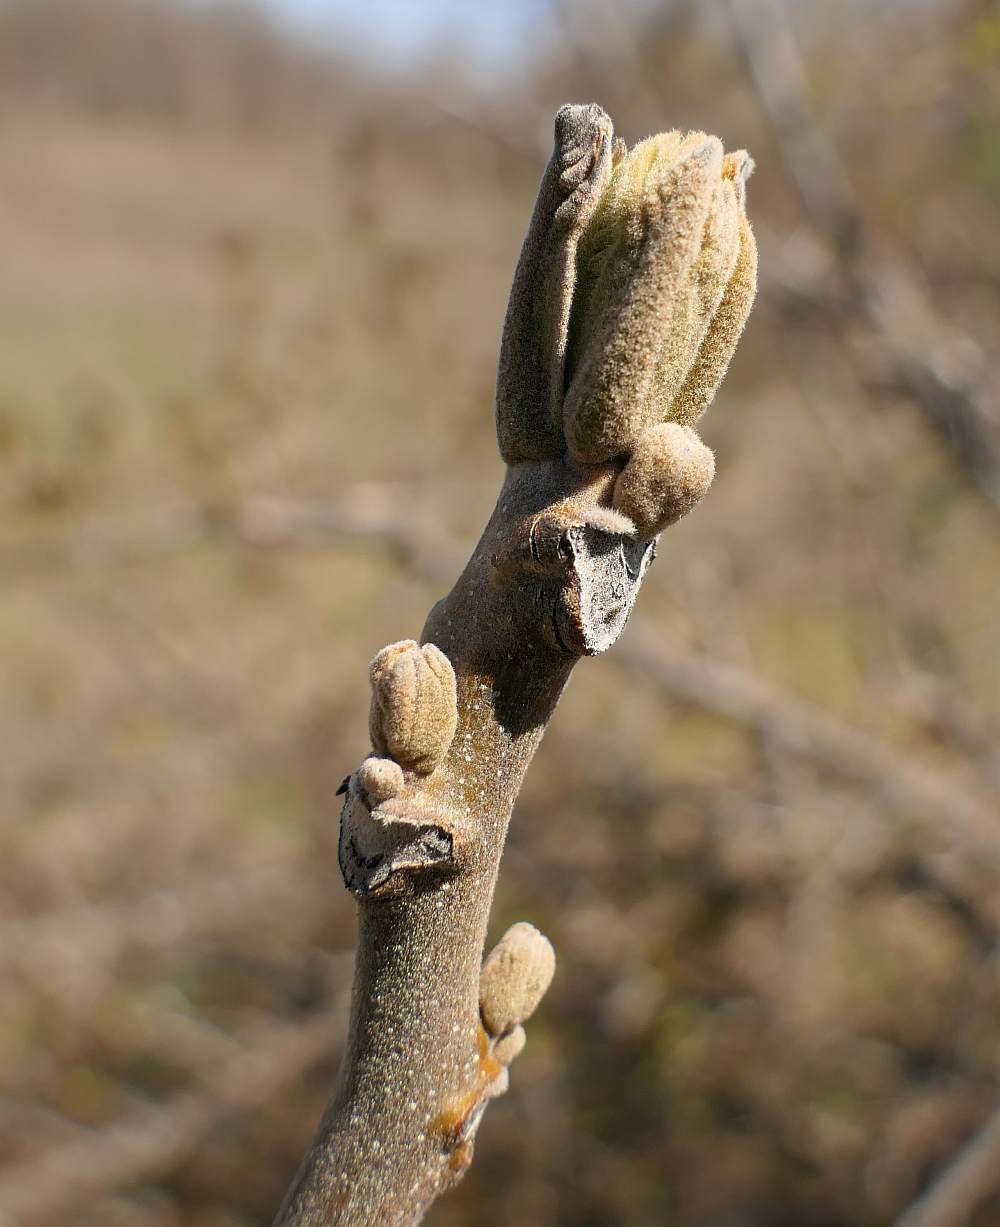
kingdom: Plantae
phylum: Tracheophyta
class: Magnoliopsida
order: Fagales
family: Juglandaceae
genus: Juglans
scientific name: Juglans cinerea
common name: Butternut
